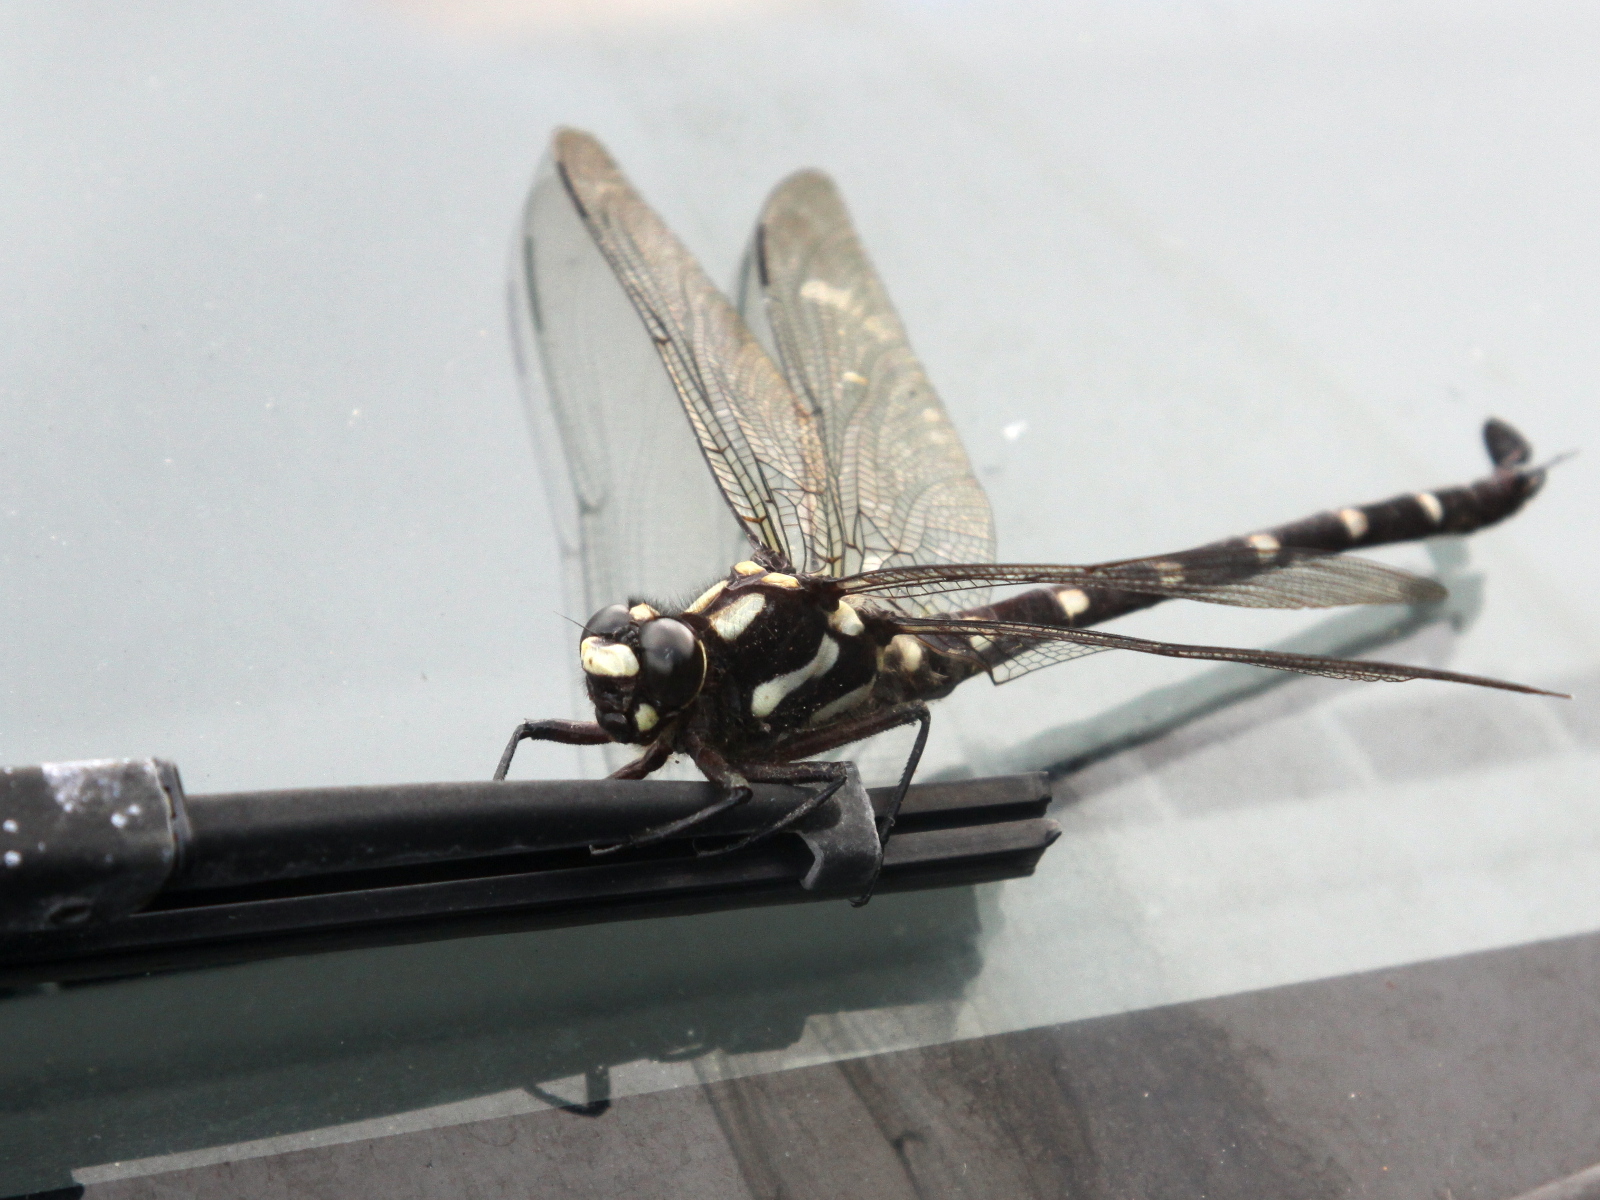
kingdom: Animalia
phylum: Arthropoda
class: Insecta
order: Odonata
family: Petaluridae
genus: Uropetala
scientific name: Uropetala carovei
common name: Bush giant dragonfly
